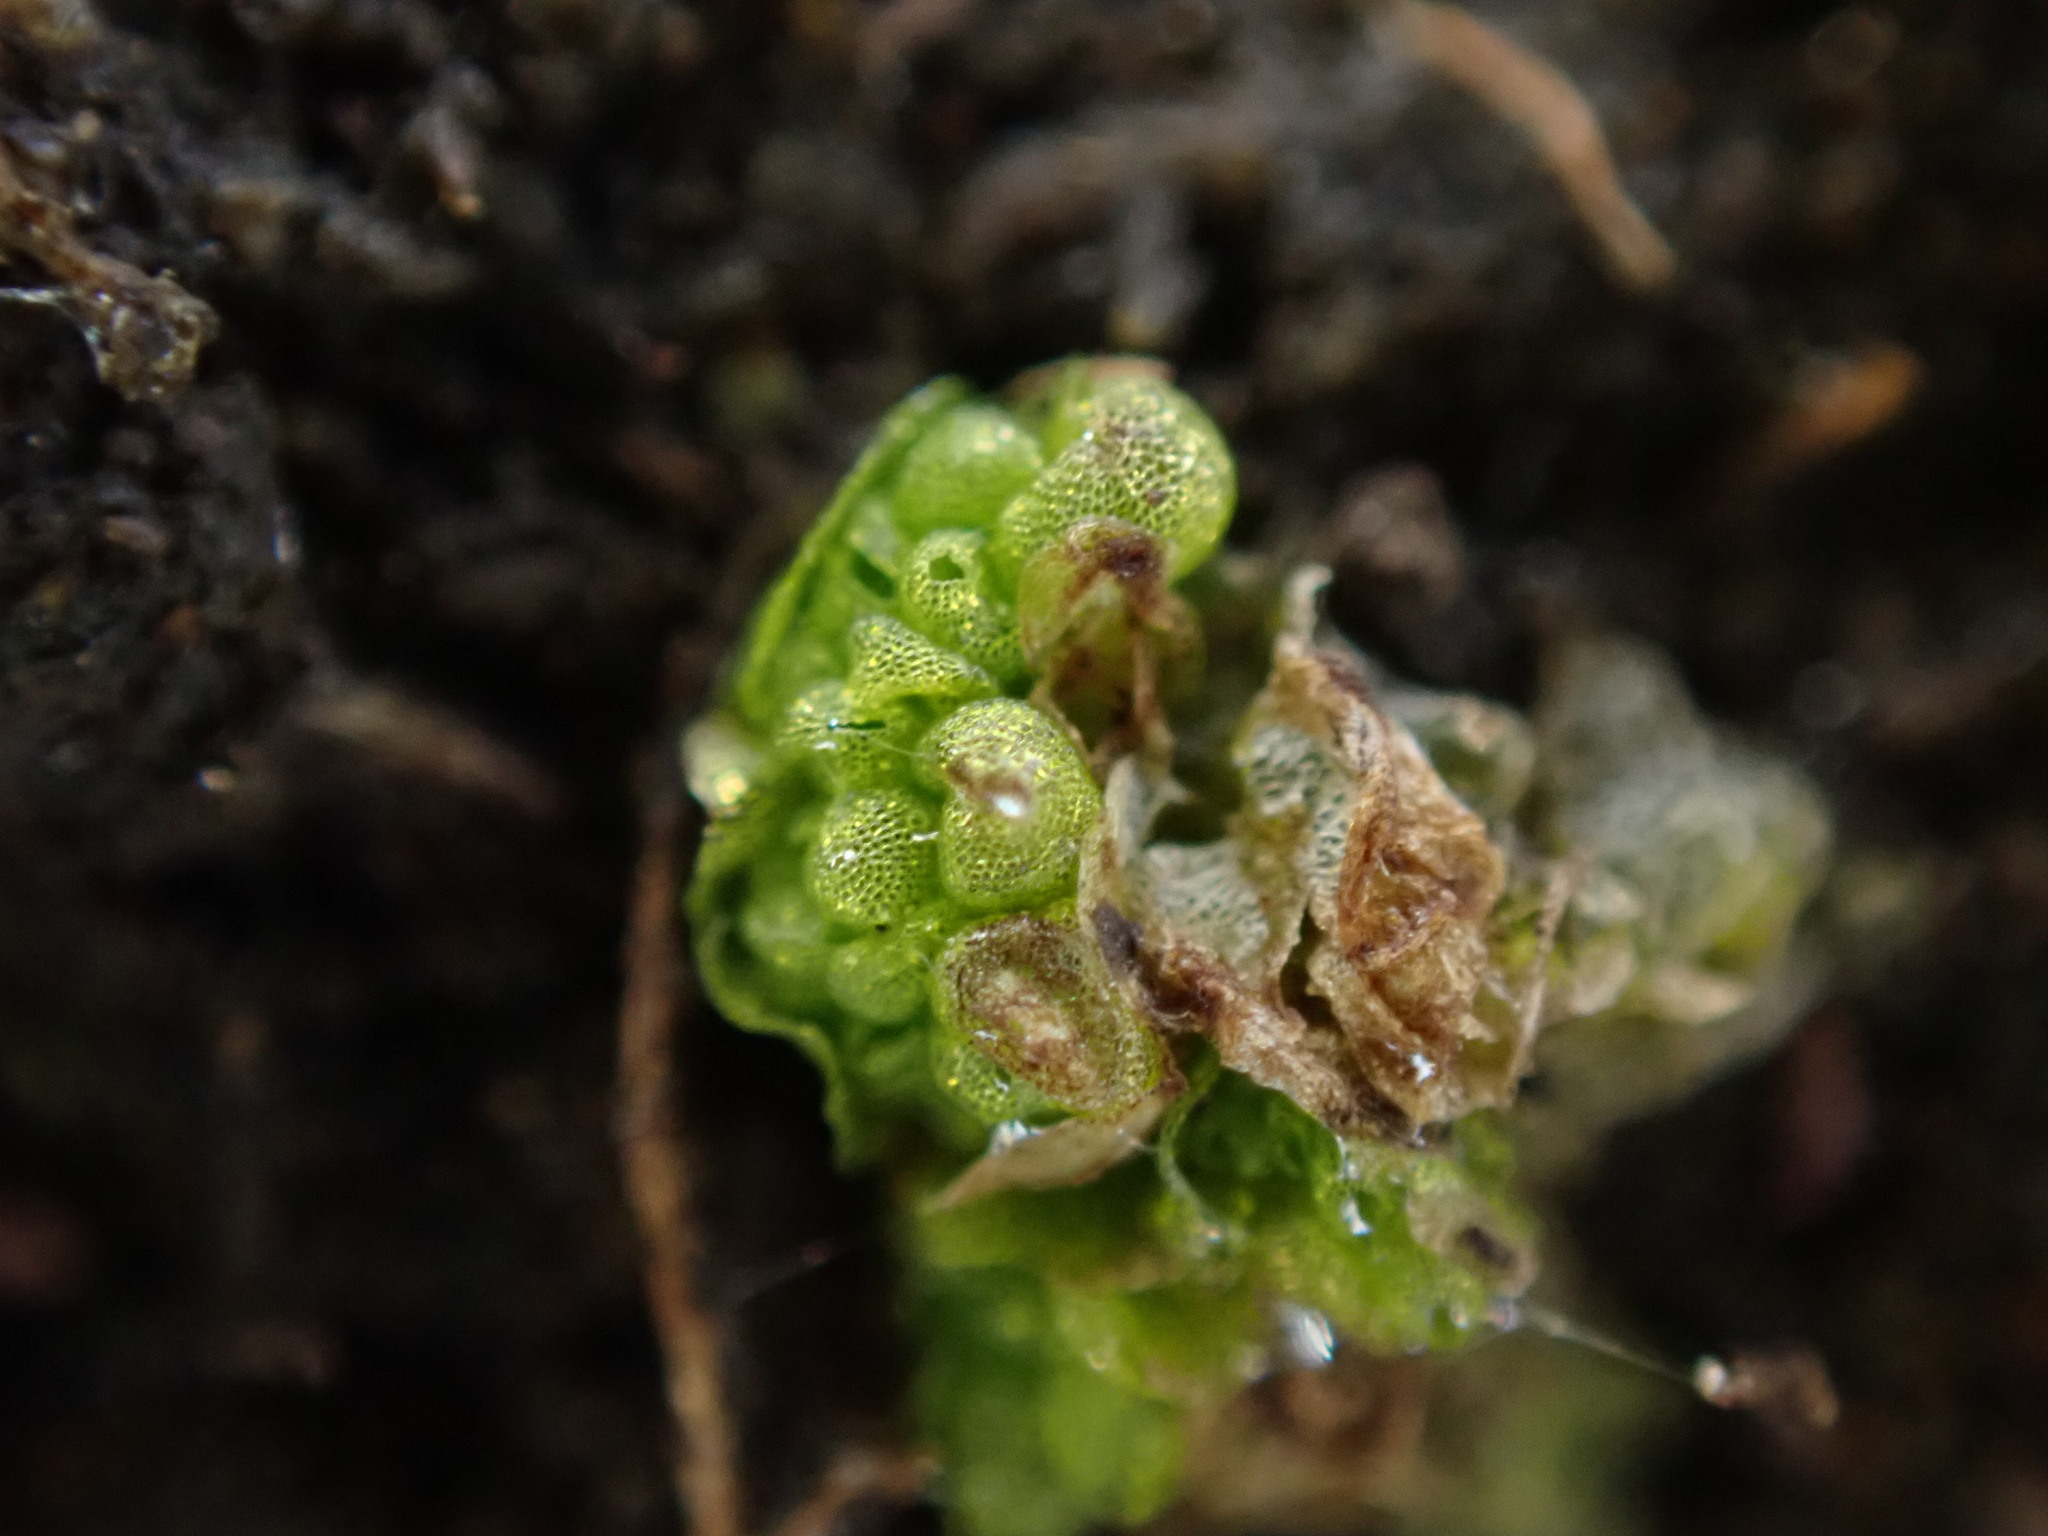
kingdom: Plantae
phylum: Marchantiophyta
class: Marchantiopsida
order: Sphaerocarpales
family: Sphaerocarpaceae
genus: Sphaerocarpos
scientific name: Sphaerocarpos texanus
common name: Texas balloonwort
